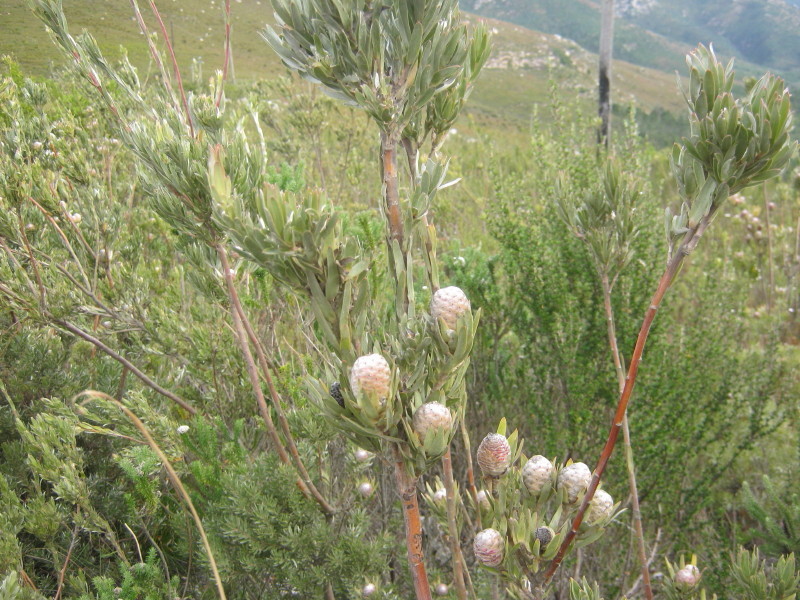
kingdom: Plantae
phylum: Tracheophyta
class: Magnoliopsida
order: Proteales
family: Proteaceae
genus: Leucadendron
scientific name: Leucadendron uliginosum
